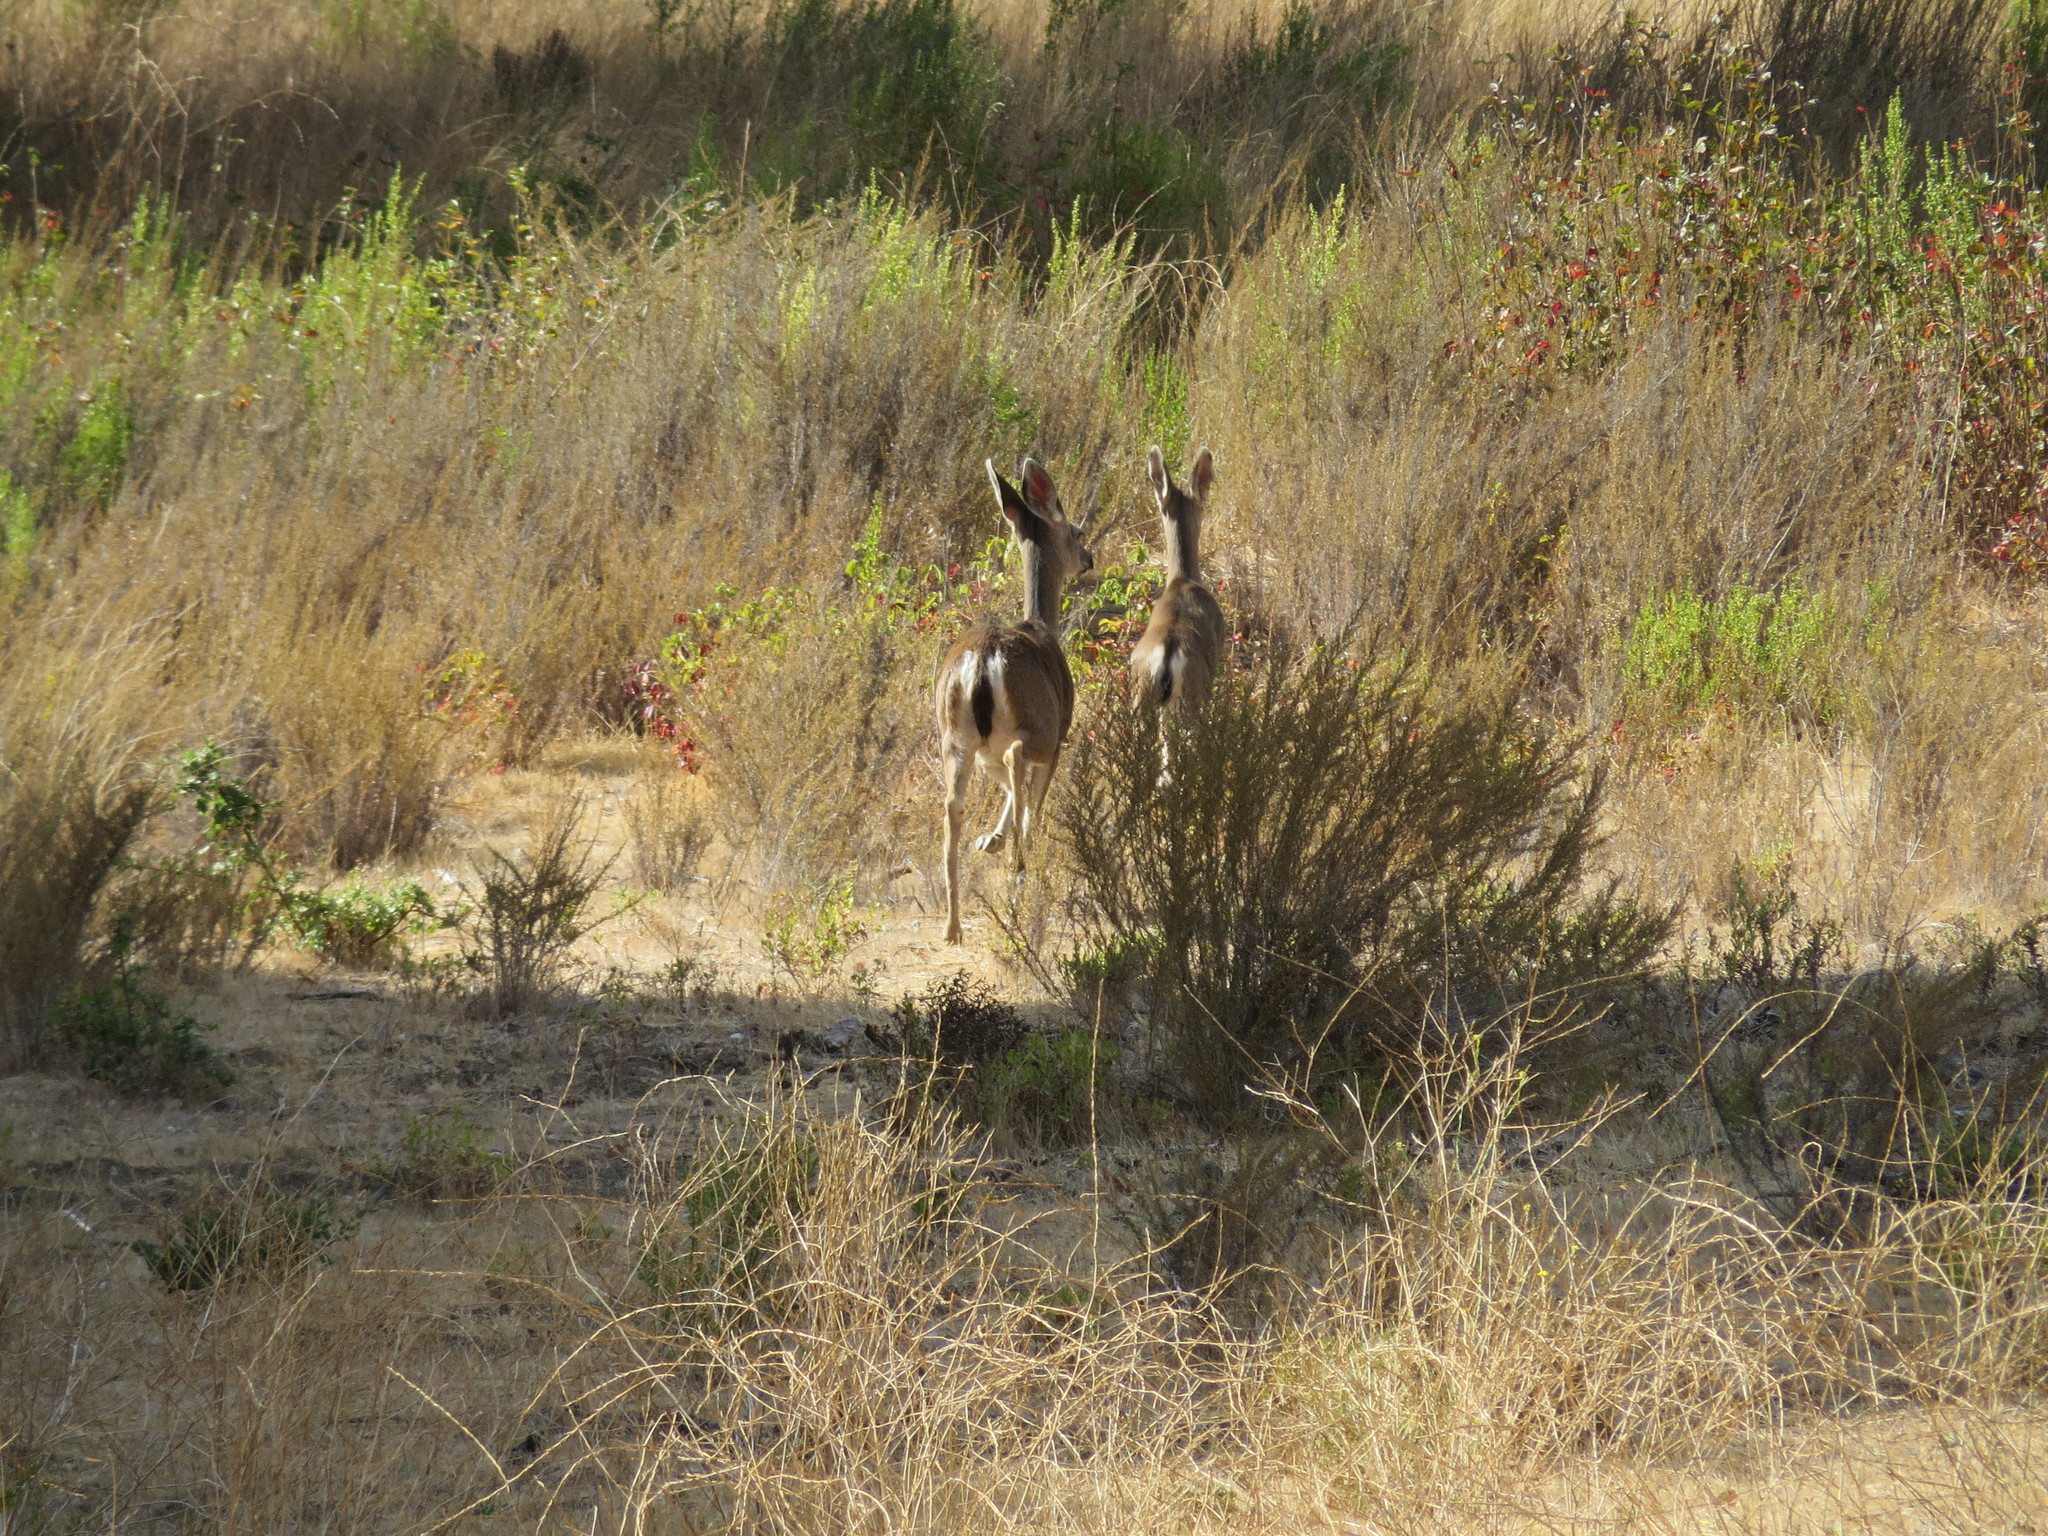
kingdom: Animalia
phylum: Chordata
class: Mammalia
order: Artiodactyla
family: Cervidae
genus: Odocoileus
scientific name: Odocoileus hemionus
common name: Mule deer
